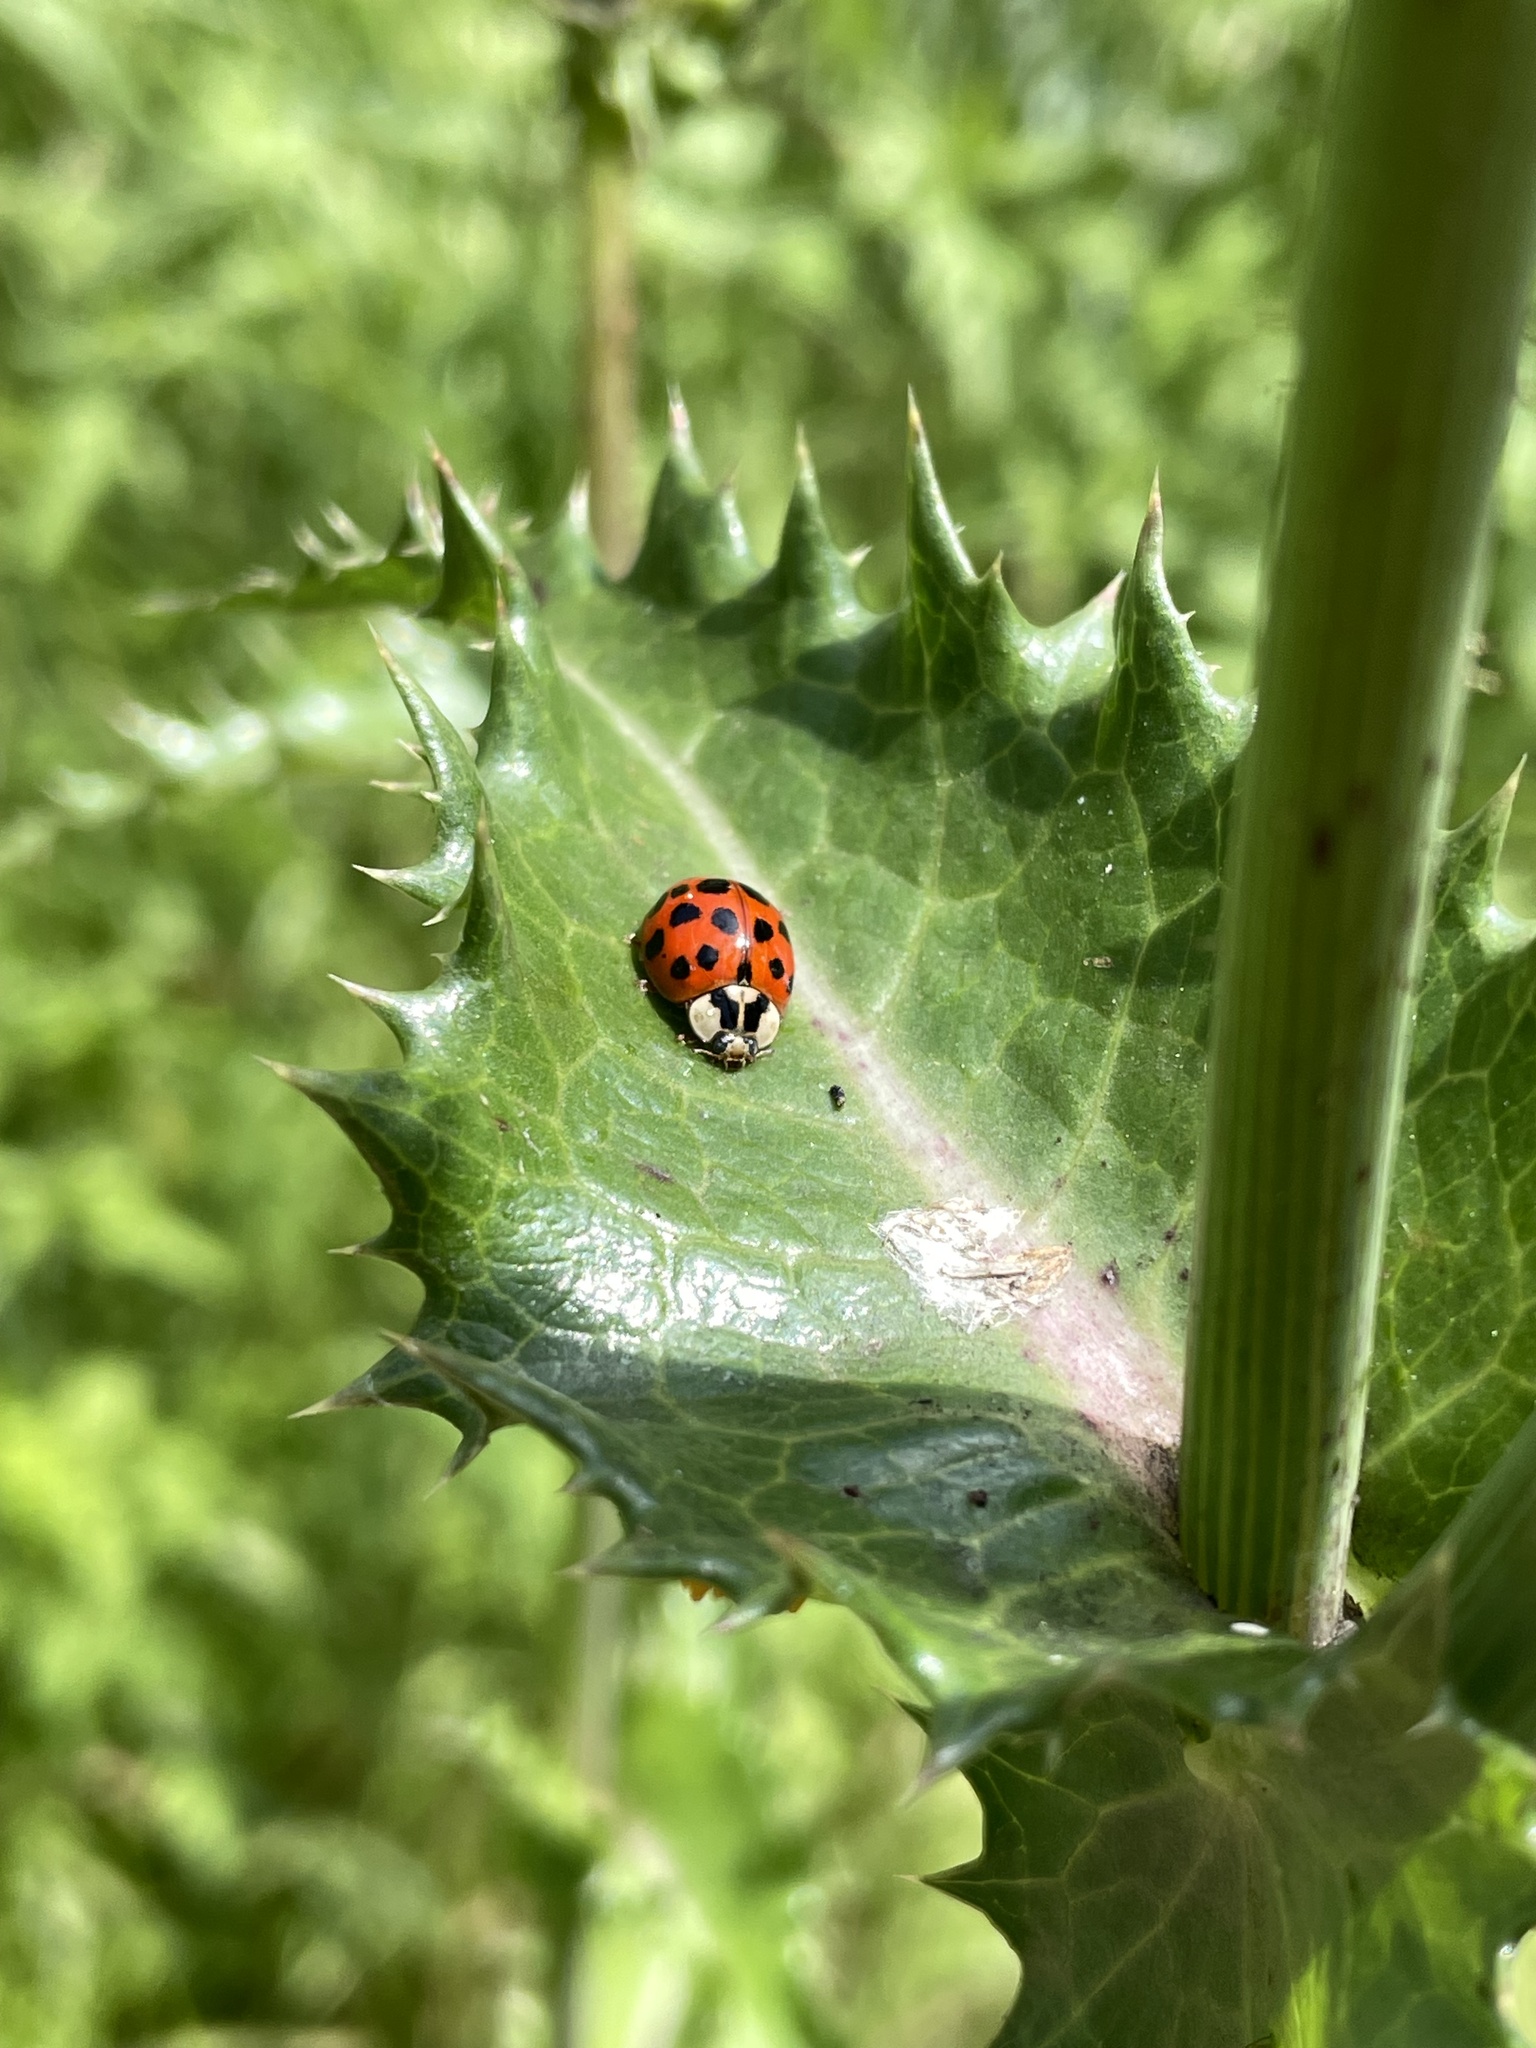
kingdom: Animalia
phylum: Arthropoda
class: Insecta
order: Coleoptera
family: Coccinellidae
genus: Harmonia
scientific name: Harmonia axyridis
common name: Harlequin ladybird
